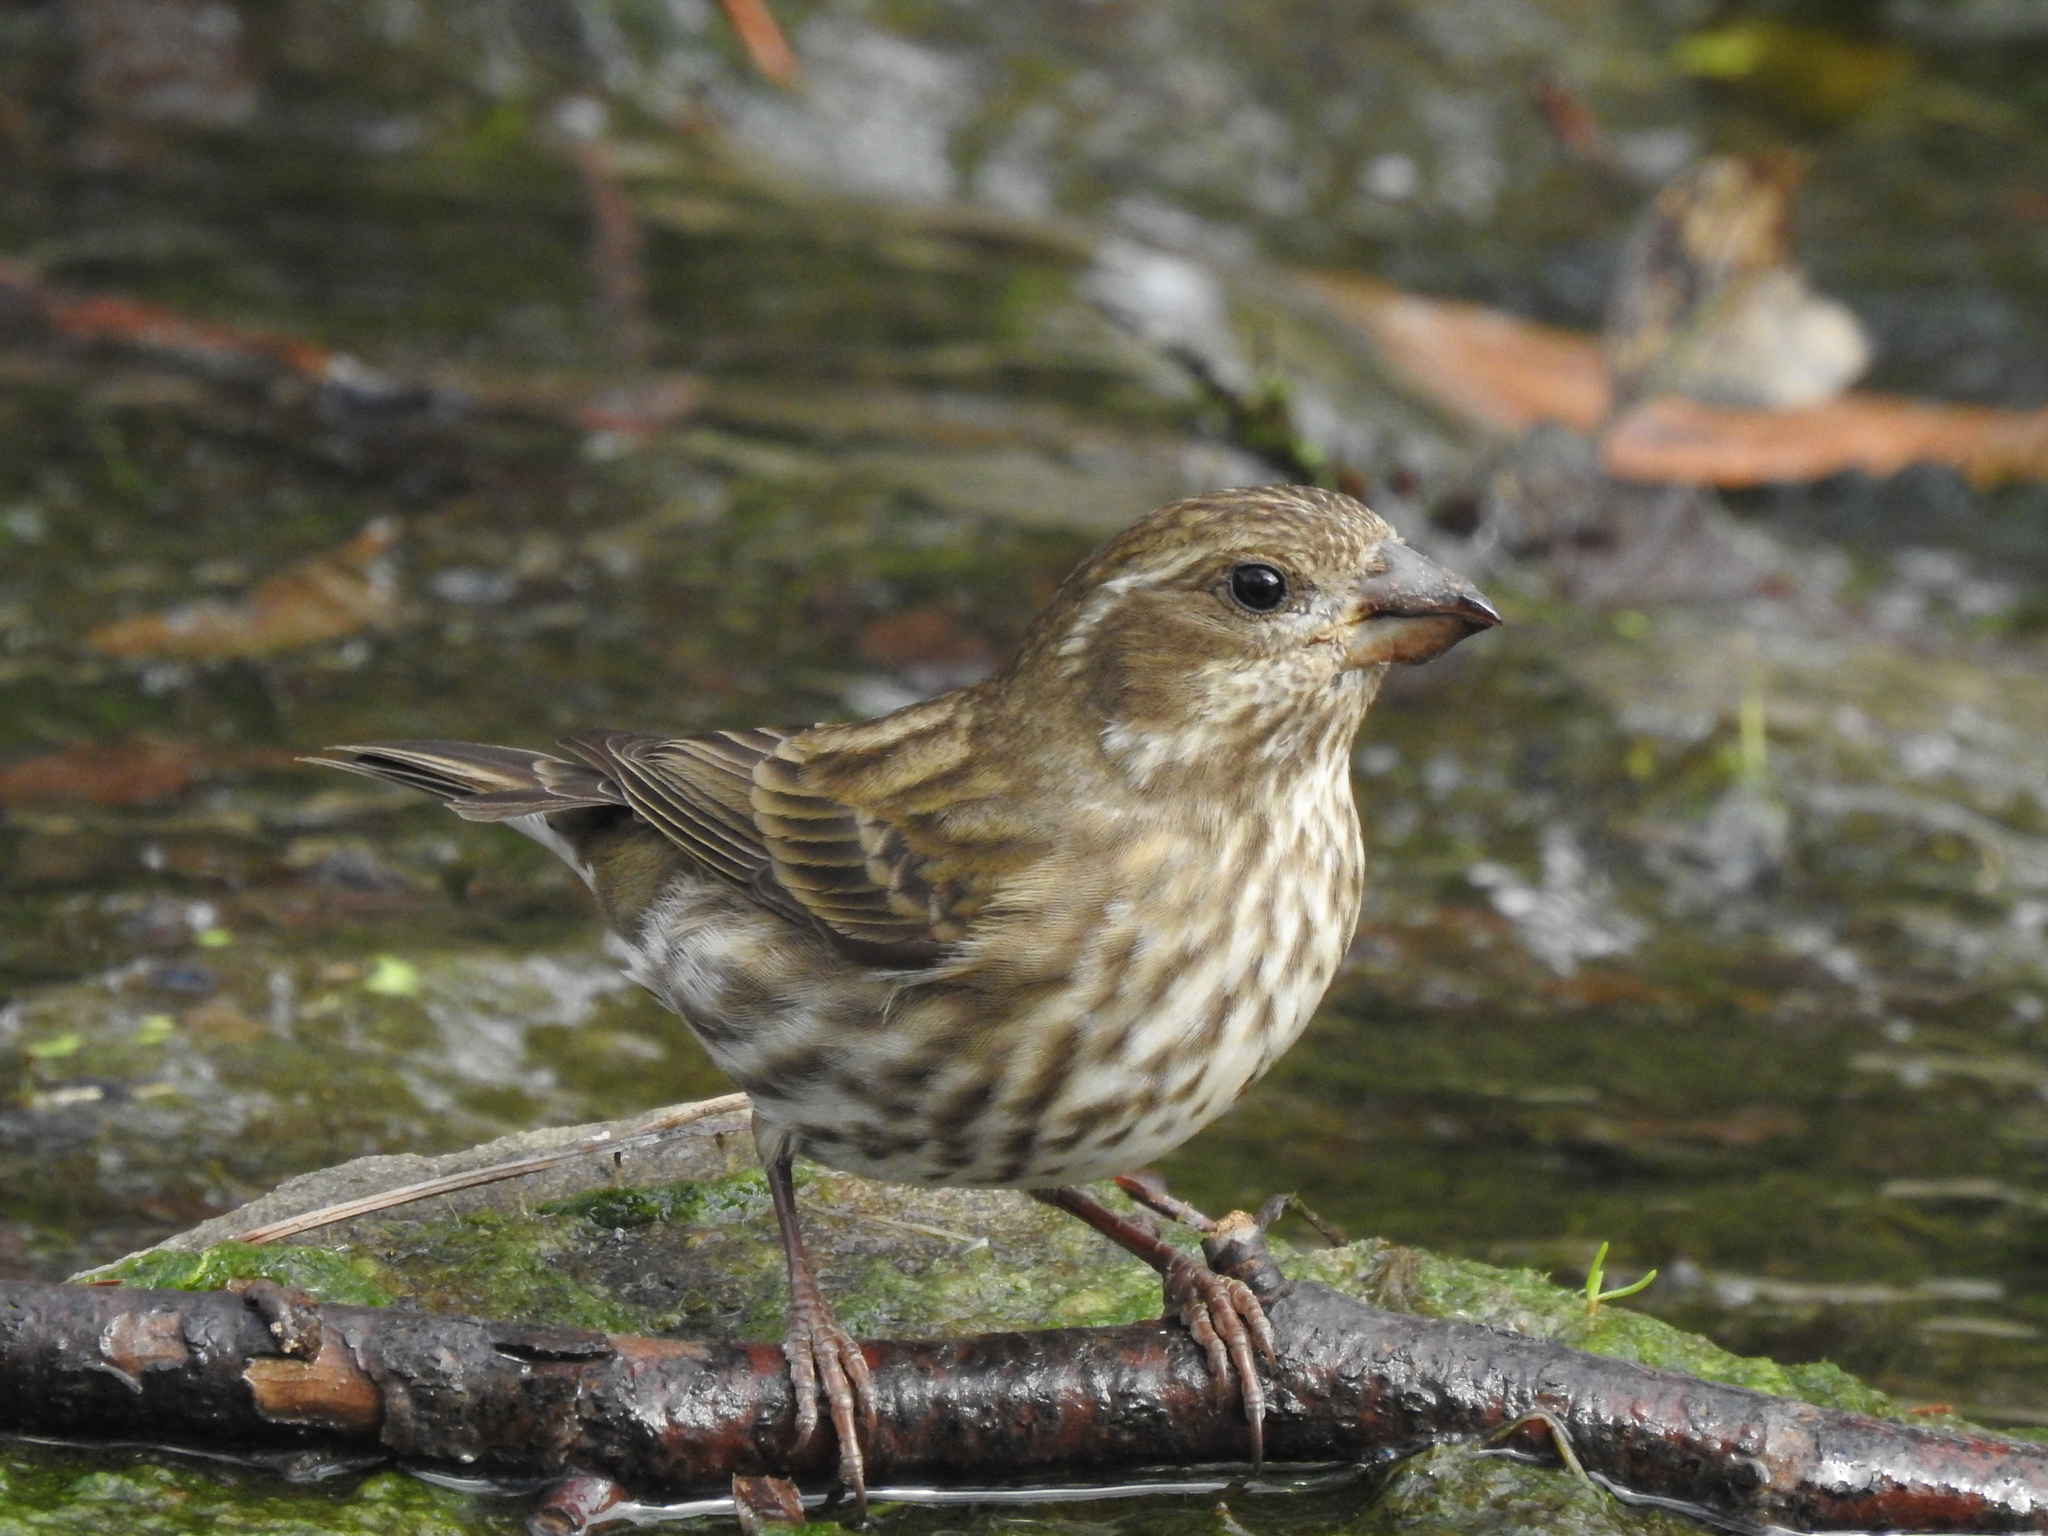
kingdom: Animalia
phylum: Chordata
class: Aves
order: Passeriformes
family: Fringillidae
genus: Haemorhous
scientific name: Haemorhous purpureus
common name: Purple finch
